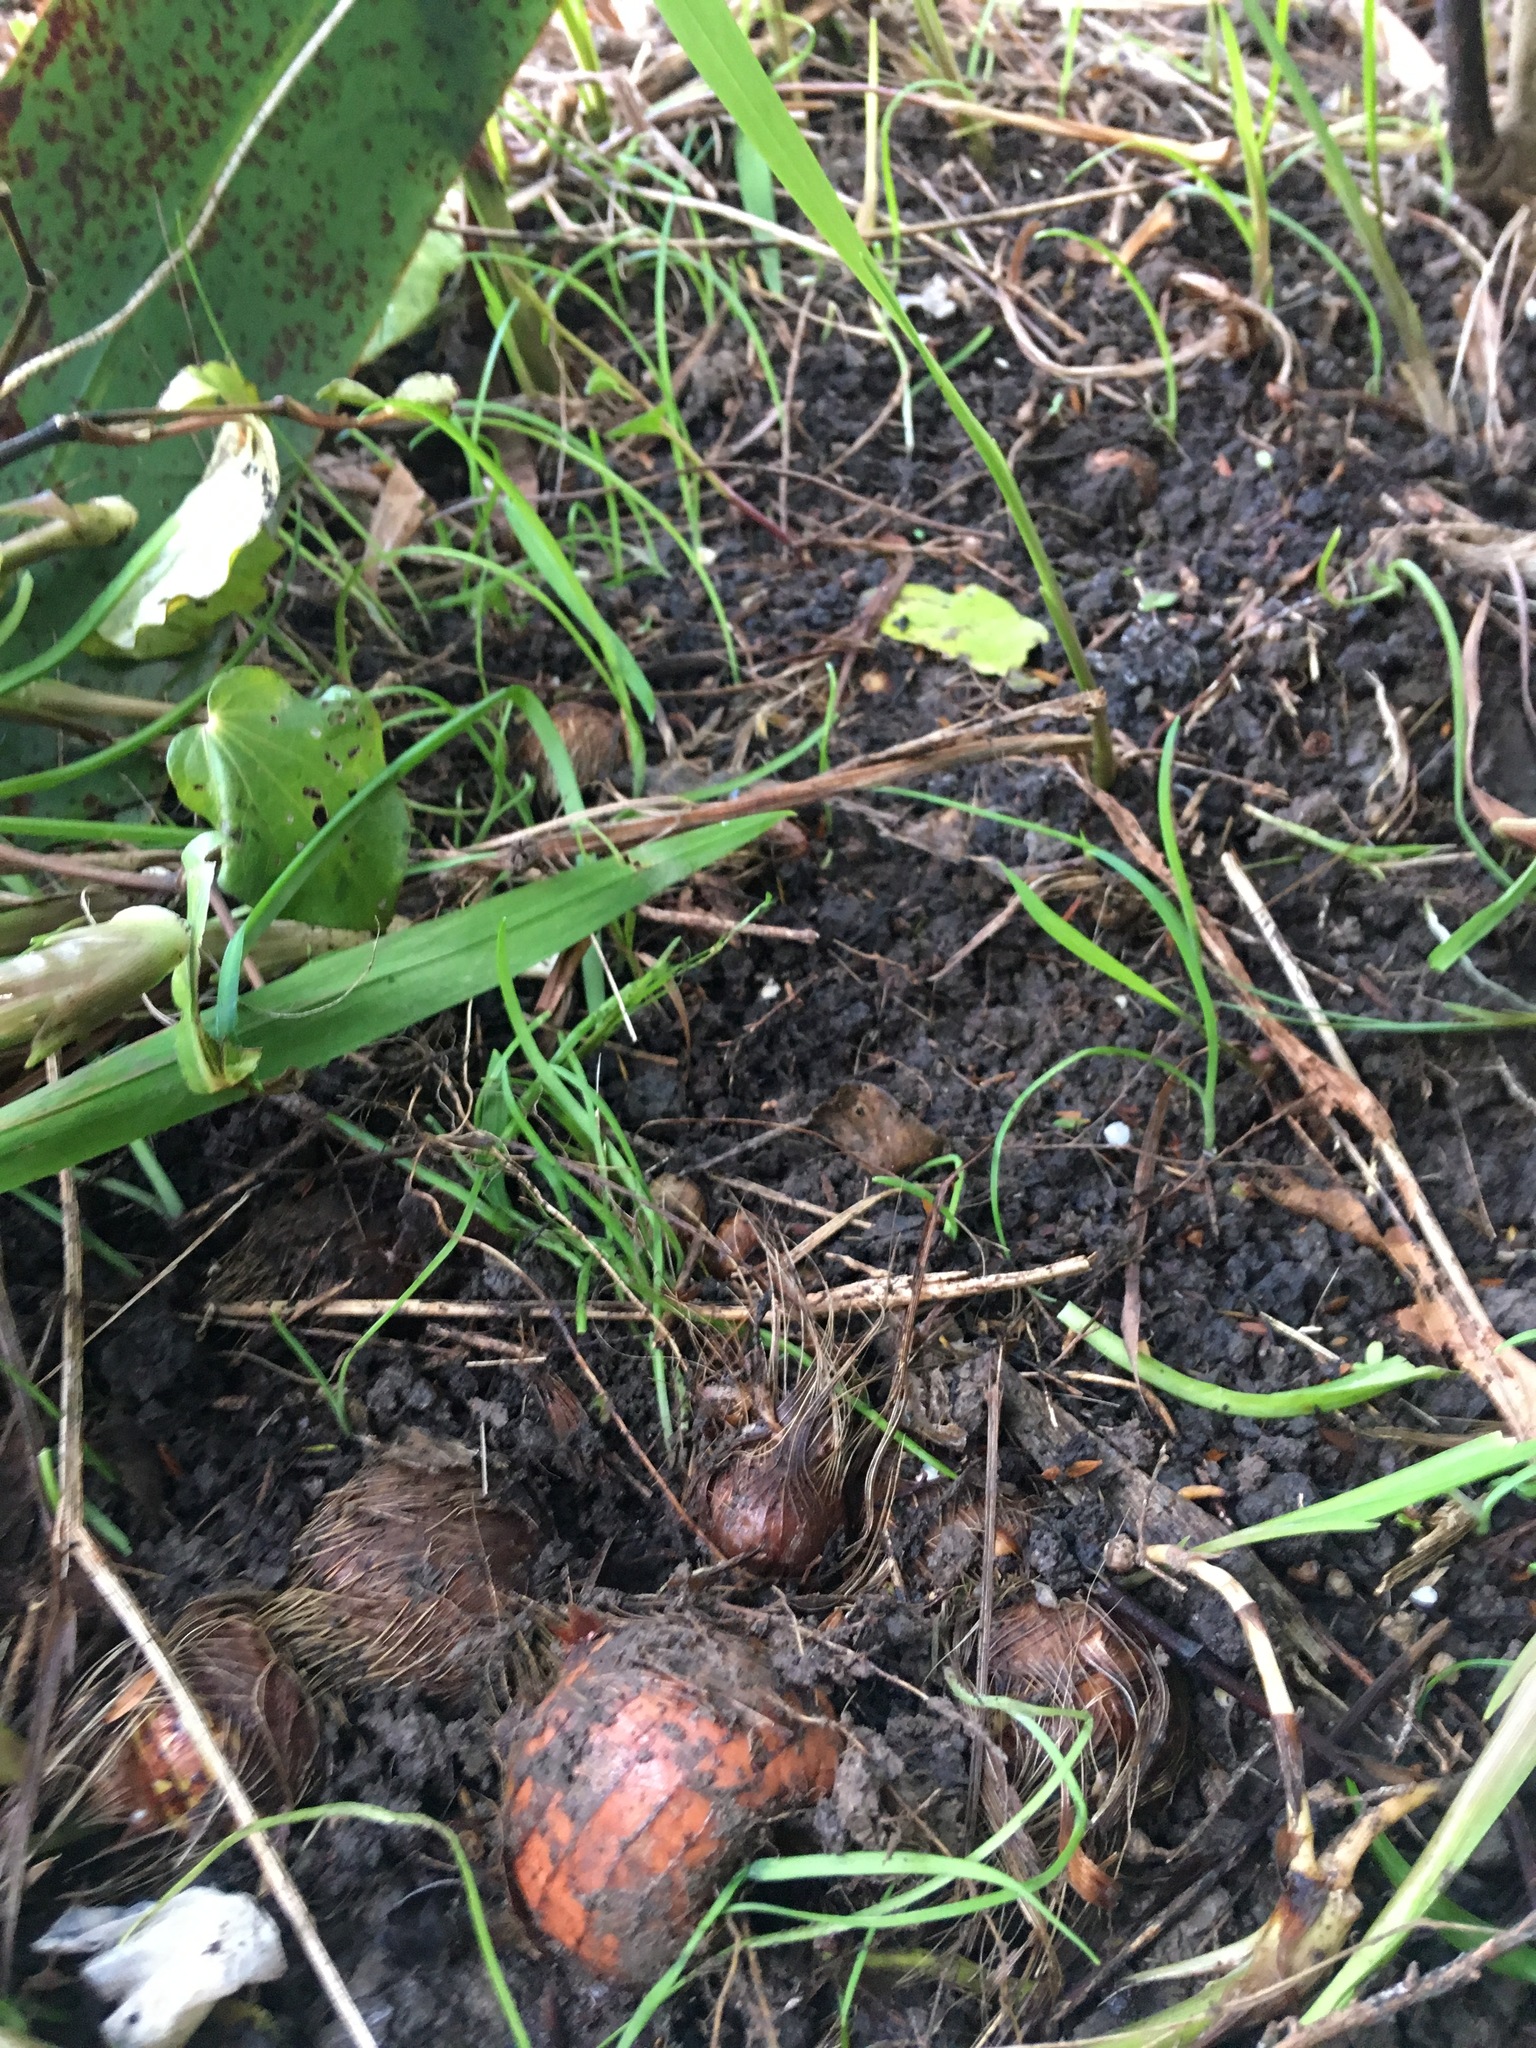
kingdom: Plantae
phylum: Tracheophyta
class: Liliopsida
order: Asparagales
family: Iridaceae
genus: Watsonia
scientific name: Watsonia meriana
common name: Bulbil bugle-lily
